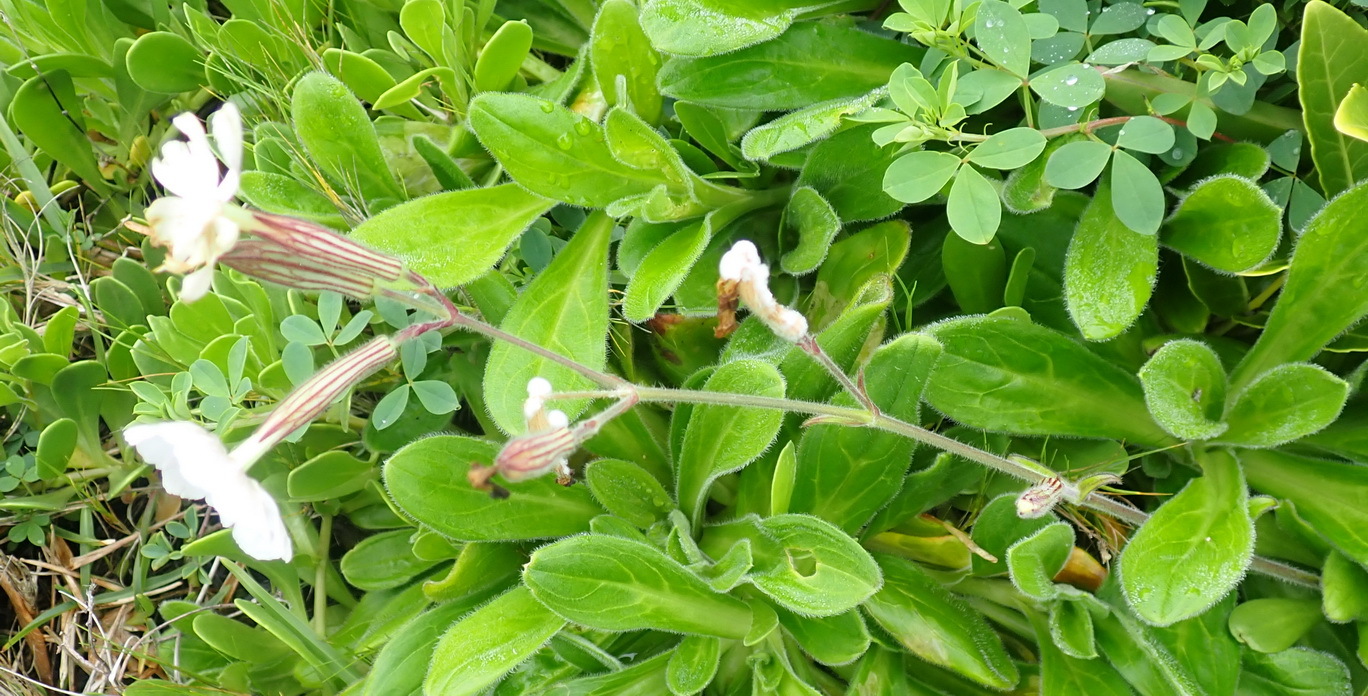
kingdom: Plantae
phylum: Tracheophyta
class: Magnoliopsida
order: Caryophyllales
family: Caryophyllaceae
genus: Silene
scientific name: Silene undulata
